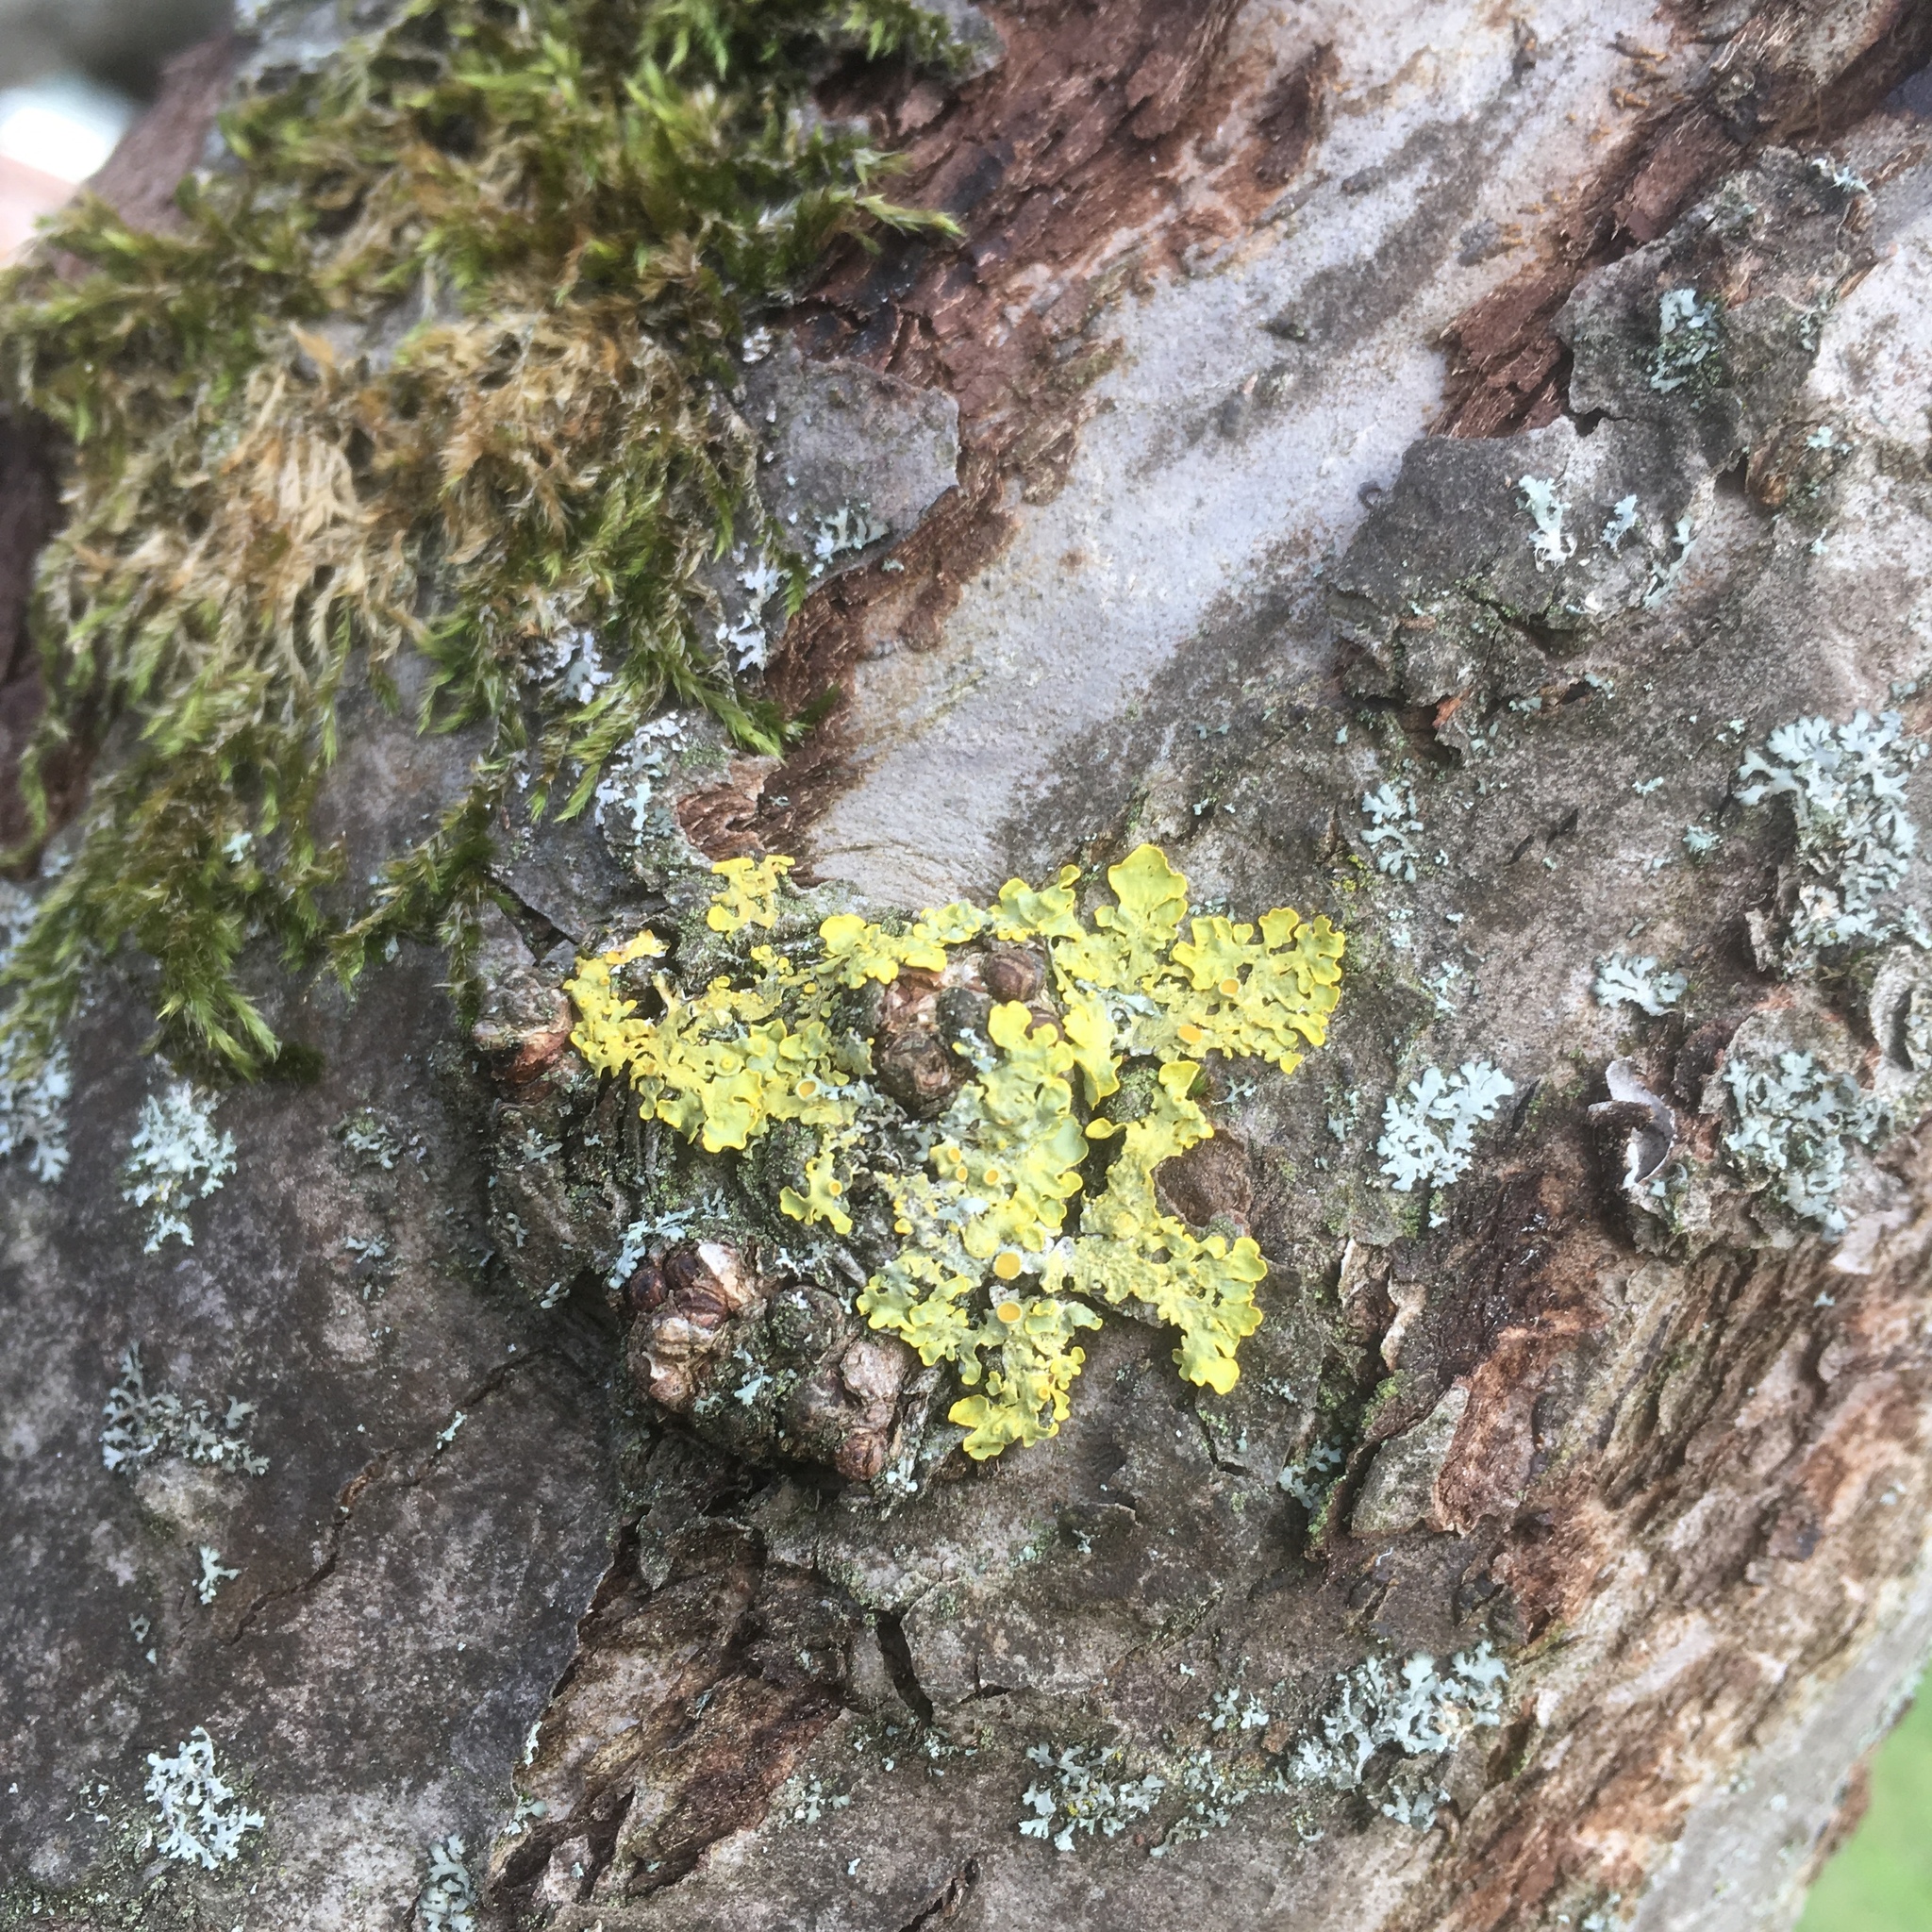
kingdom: Fungi
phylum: Ascomycota
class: Lecanoromycetes
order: Teloschistales
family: Teloschistaceae
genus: Xanthoria
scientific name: Xanthoria parietina
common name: Common orange lichen
